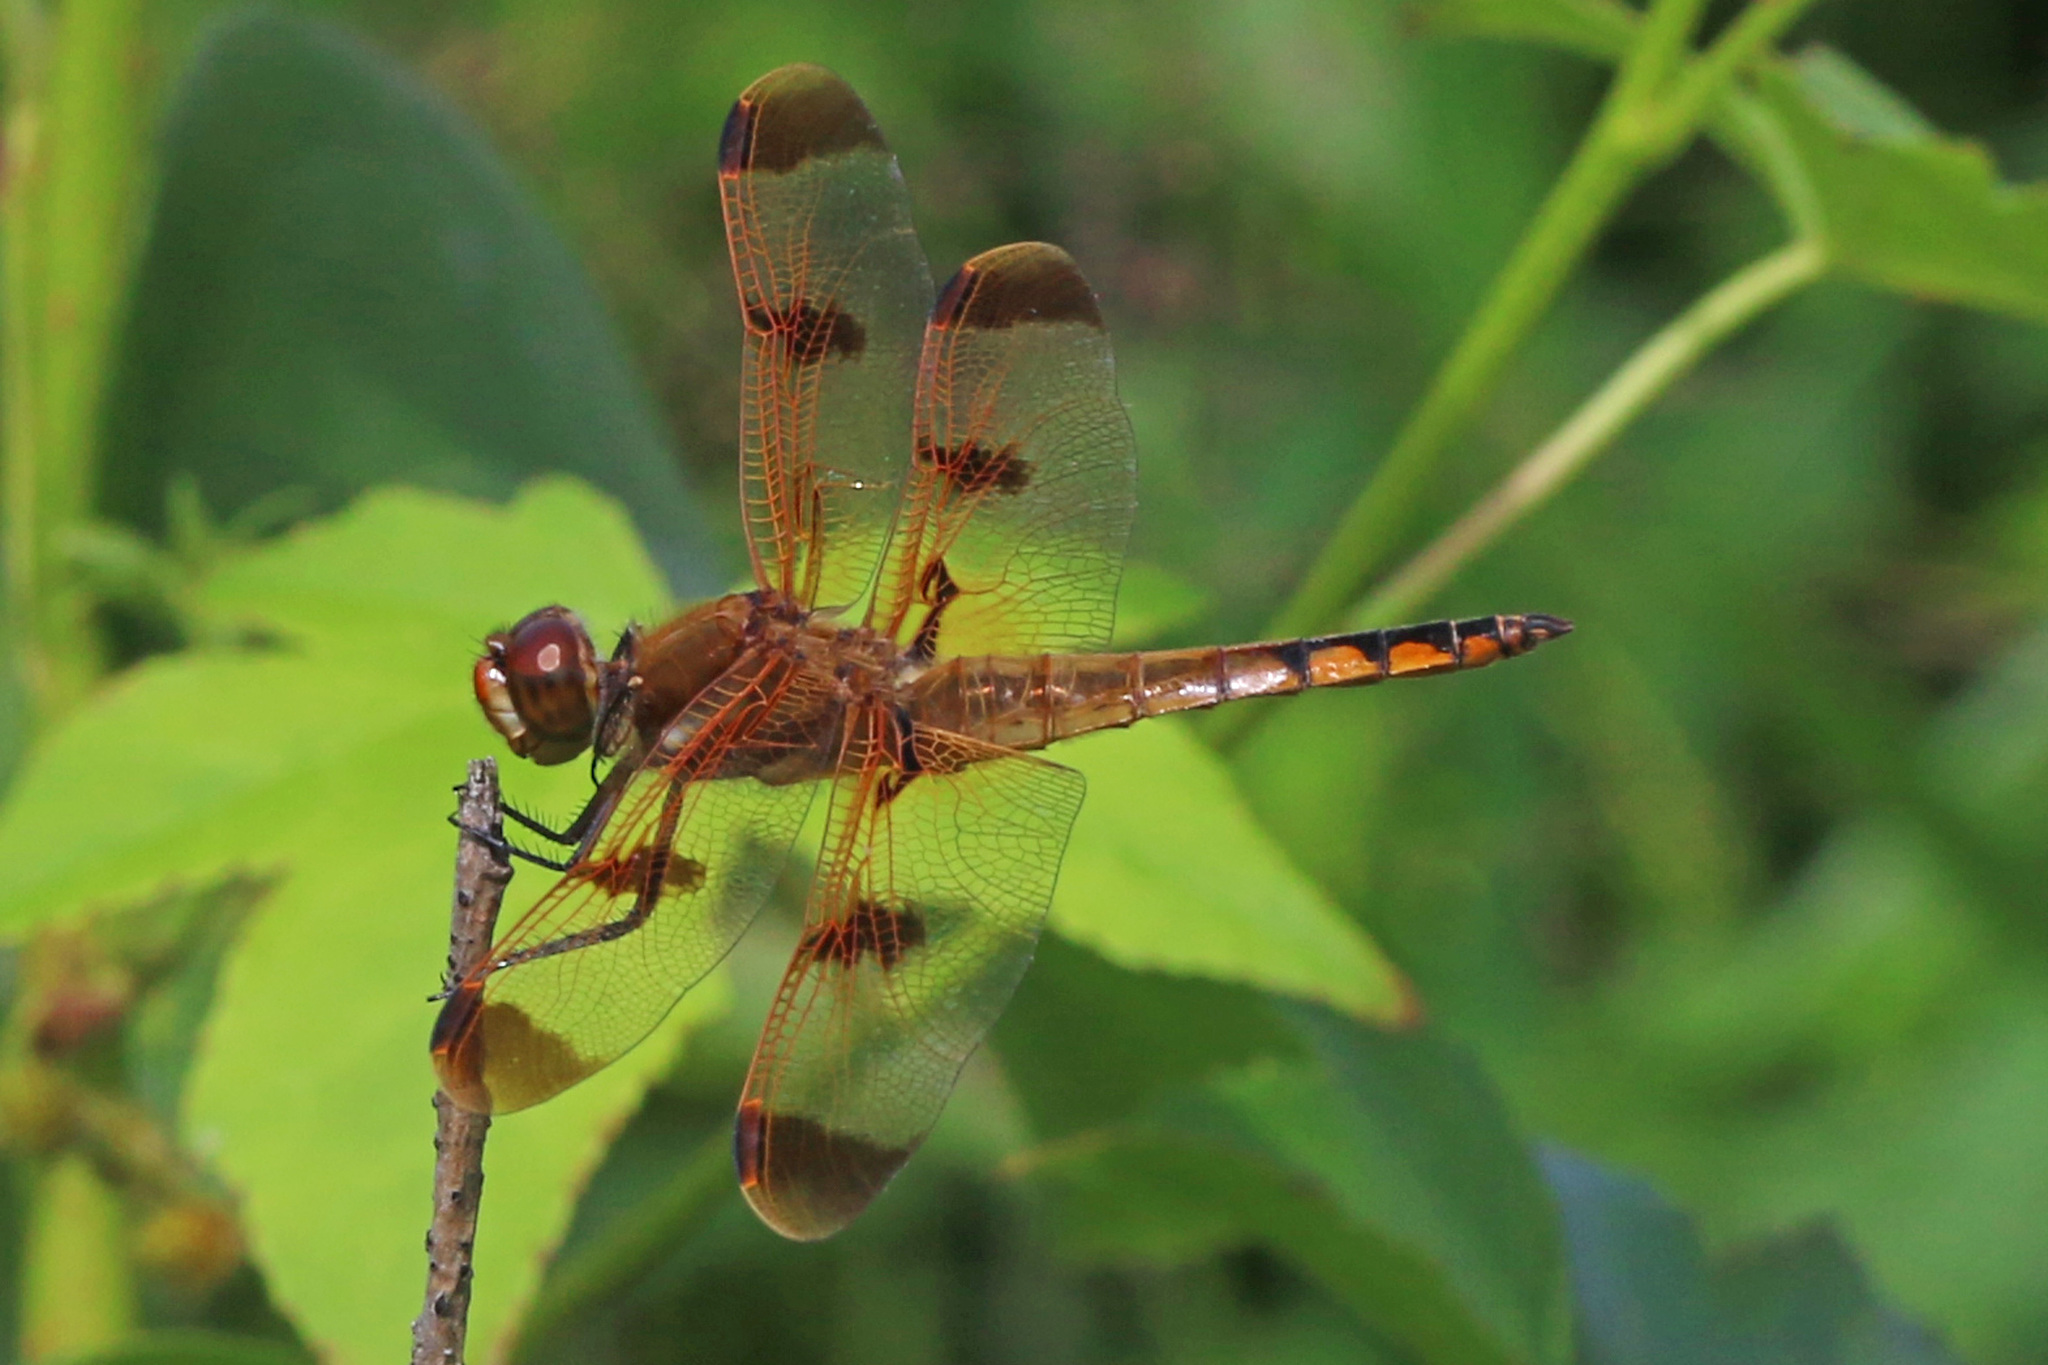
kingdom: Animalia
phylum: Arthropoda
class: Insecta
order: Odonata
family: Libellulidae
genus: Libellula
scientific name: Libellula semifasciata
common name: Painted skimmer
